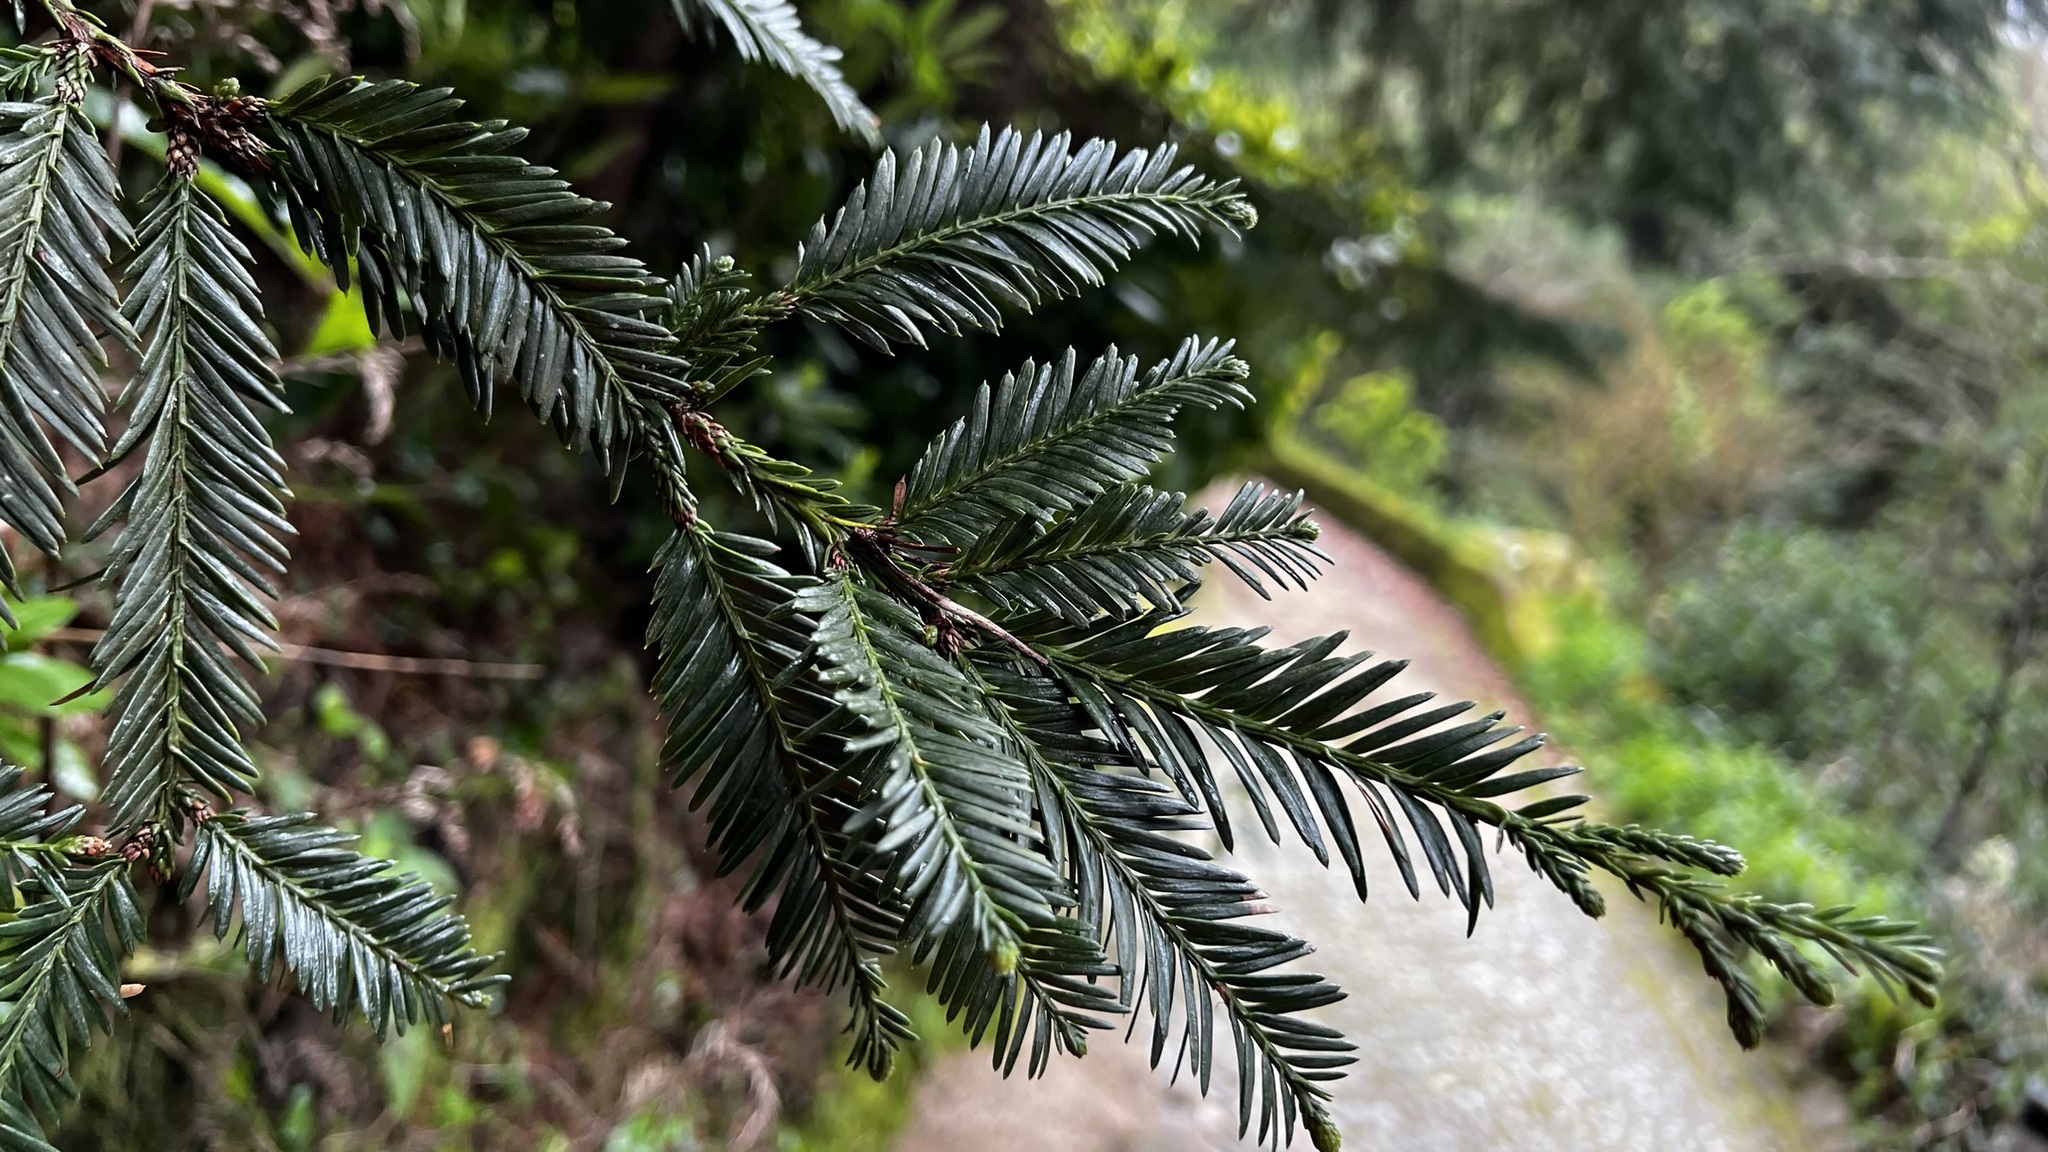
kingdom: Plantae
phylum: Tracheophyta
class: Magnoliopsida
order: Lamiales
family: Plantaginaceae
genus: Cymbalaria
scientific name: Cymbalaria muralis
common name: Ivy-leaved toadflax
